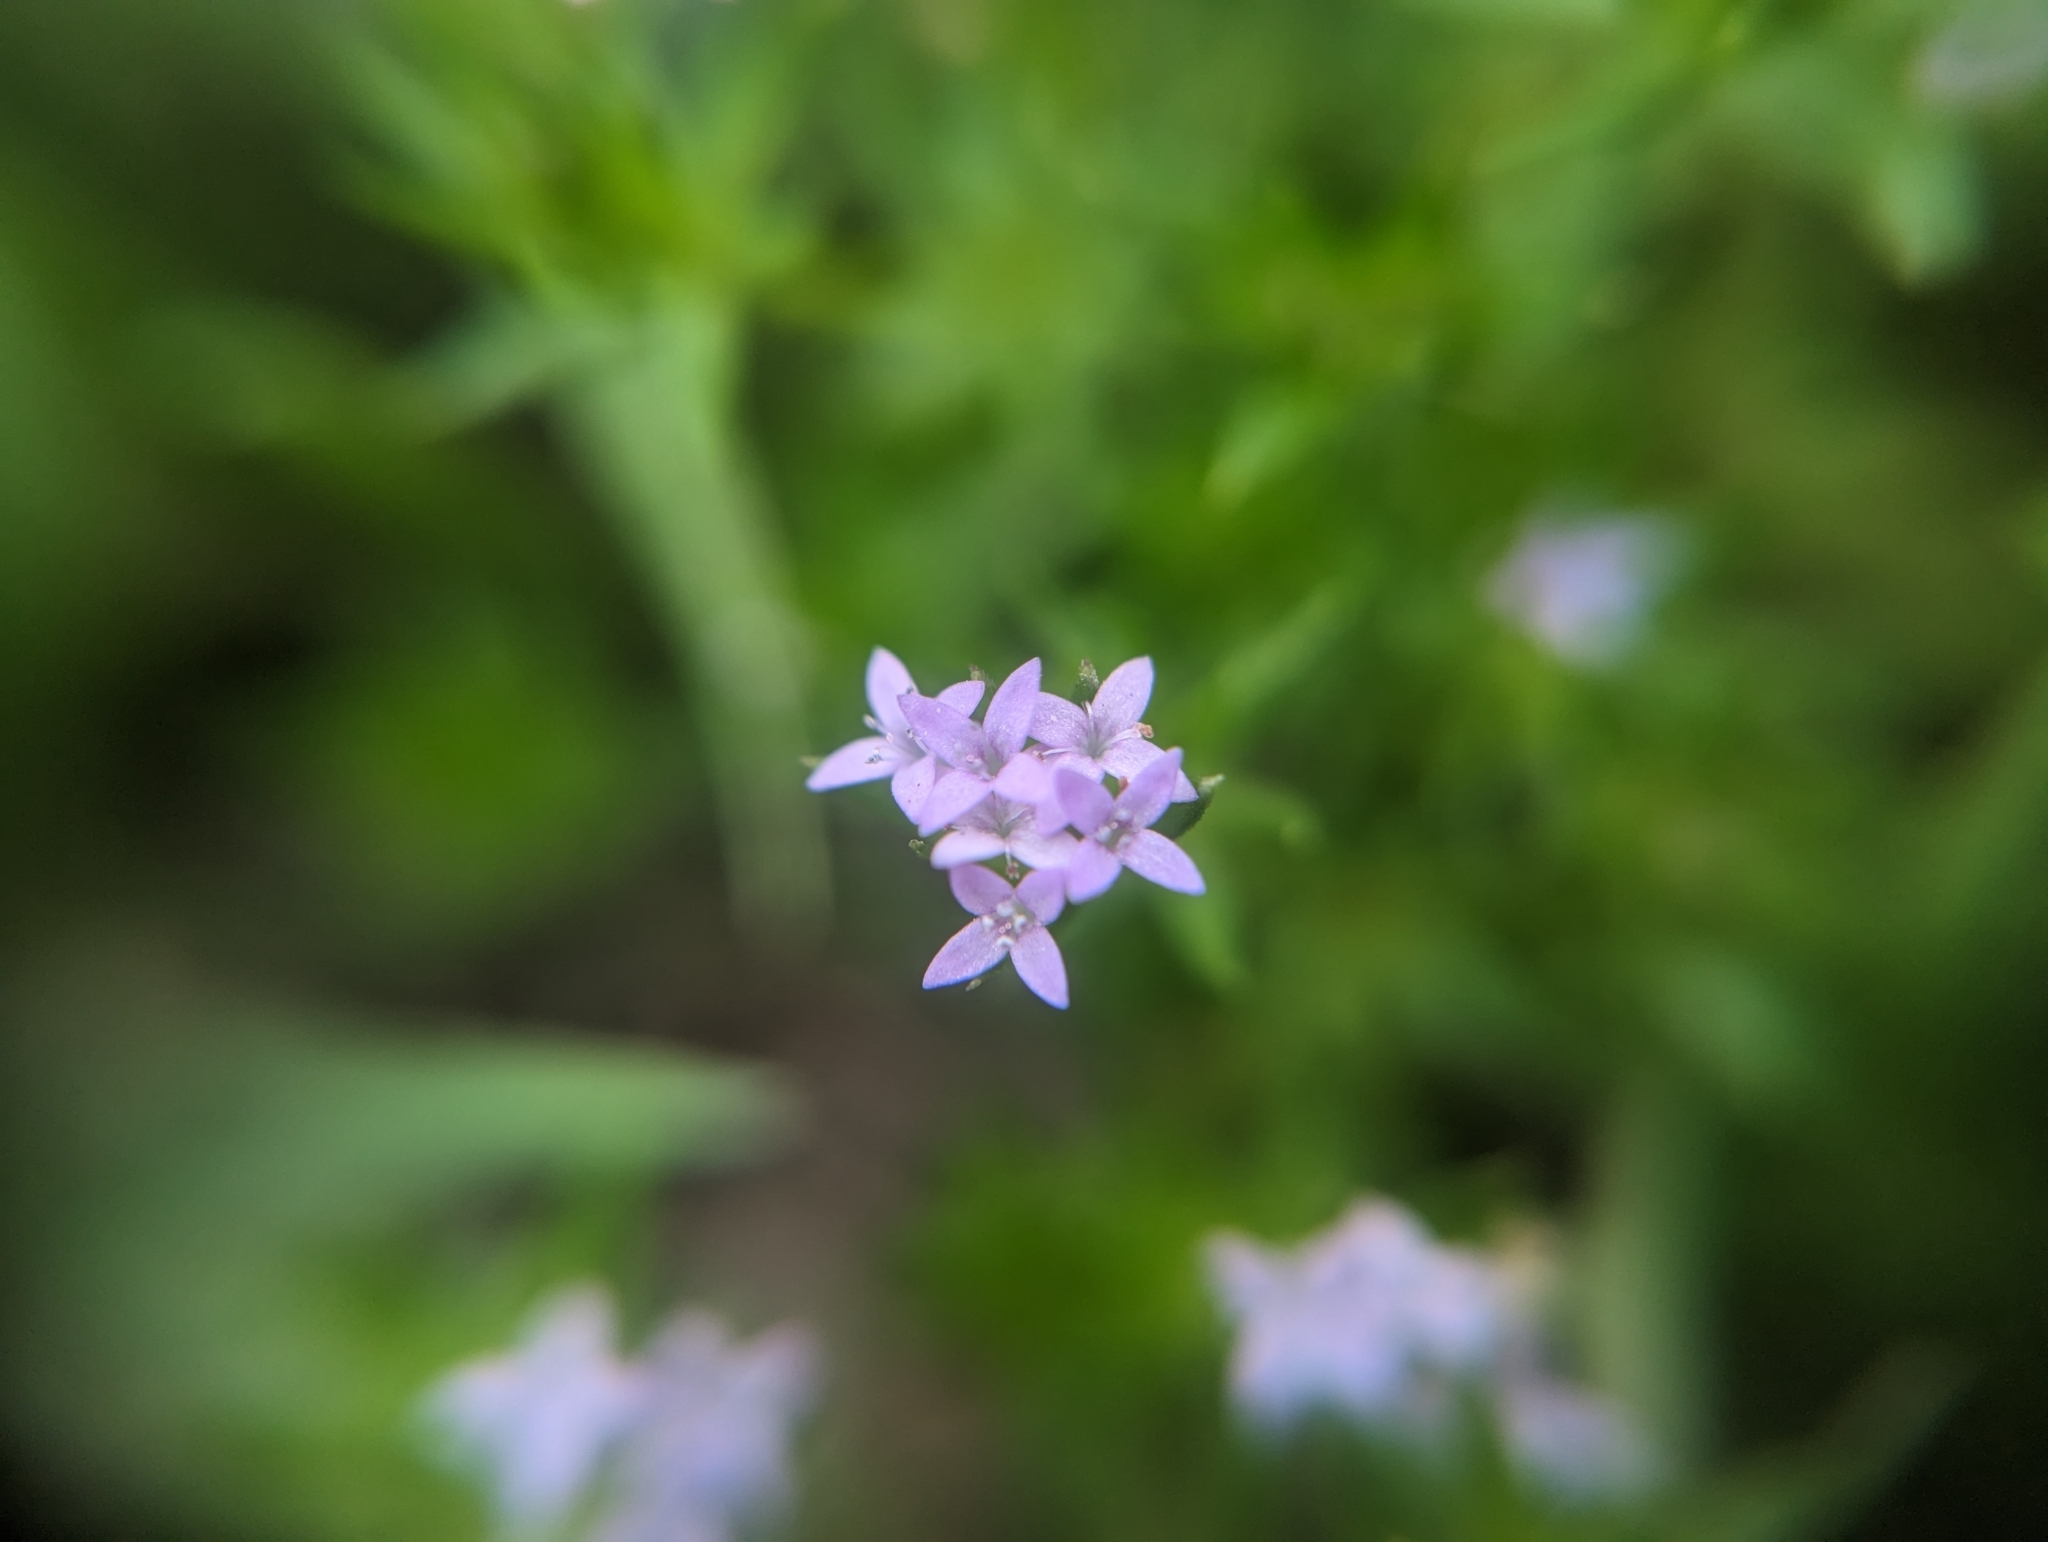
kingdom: Plantae
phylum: Tracheophyta
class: Magnoliopsida
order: Gentianales
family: Rubiaceae
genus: Sherardia
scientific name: Sherardia arvensis
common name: Field madder
